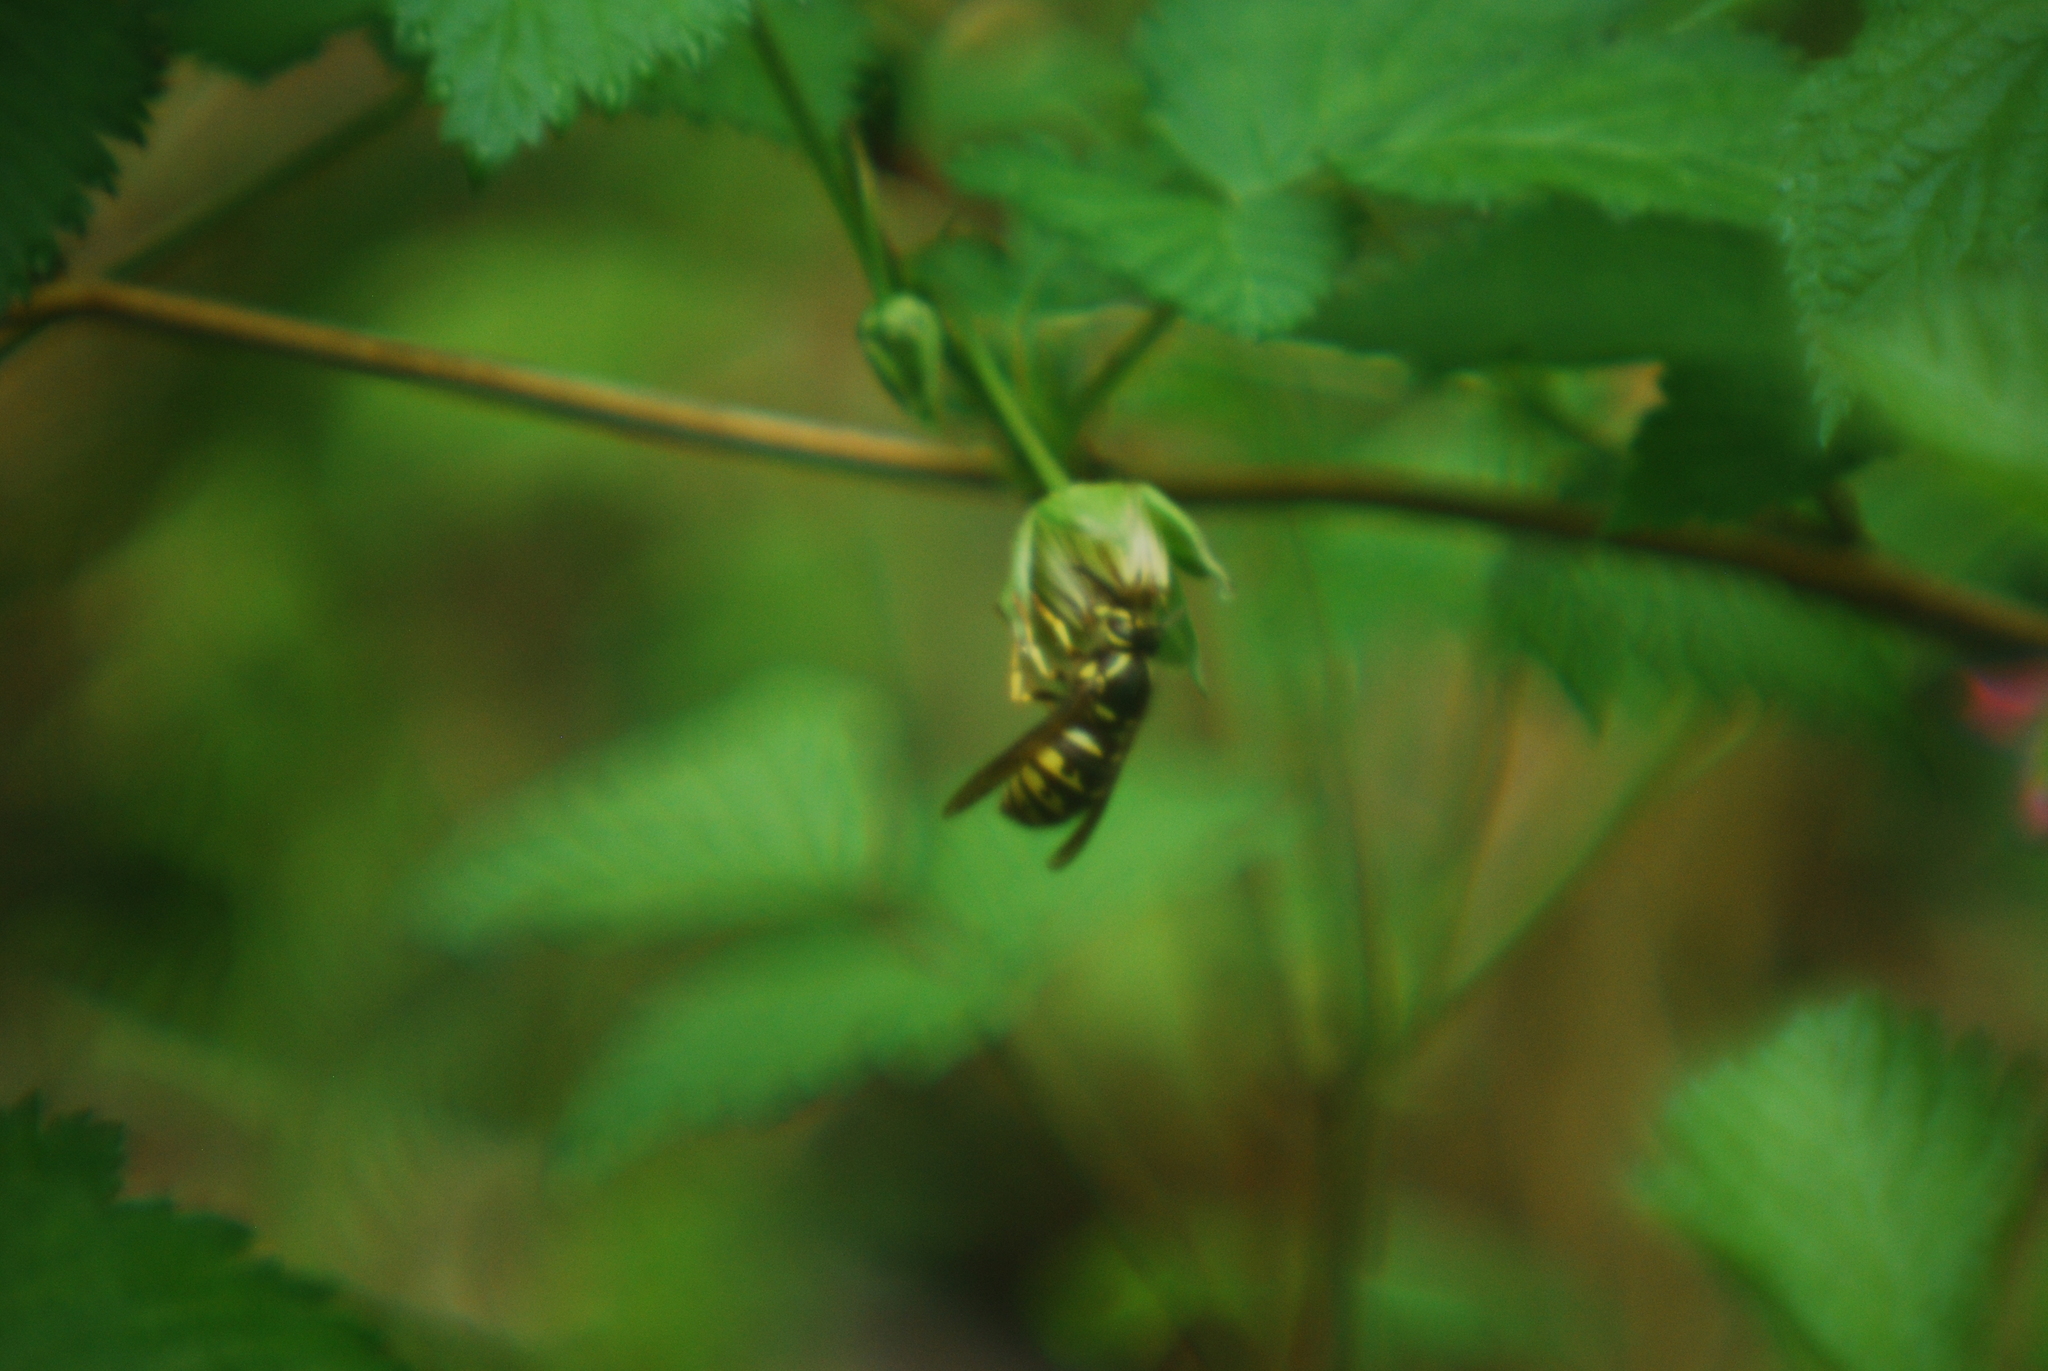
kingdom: Animalia
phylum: Arthropoda
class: Insecta
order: Hymenoptera
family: Vespidae
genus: Dolichovespula
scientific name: Dolichovespula arenaria
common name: Aerial yellowjacket
